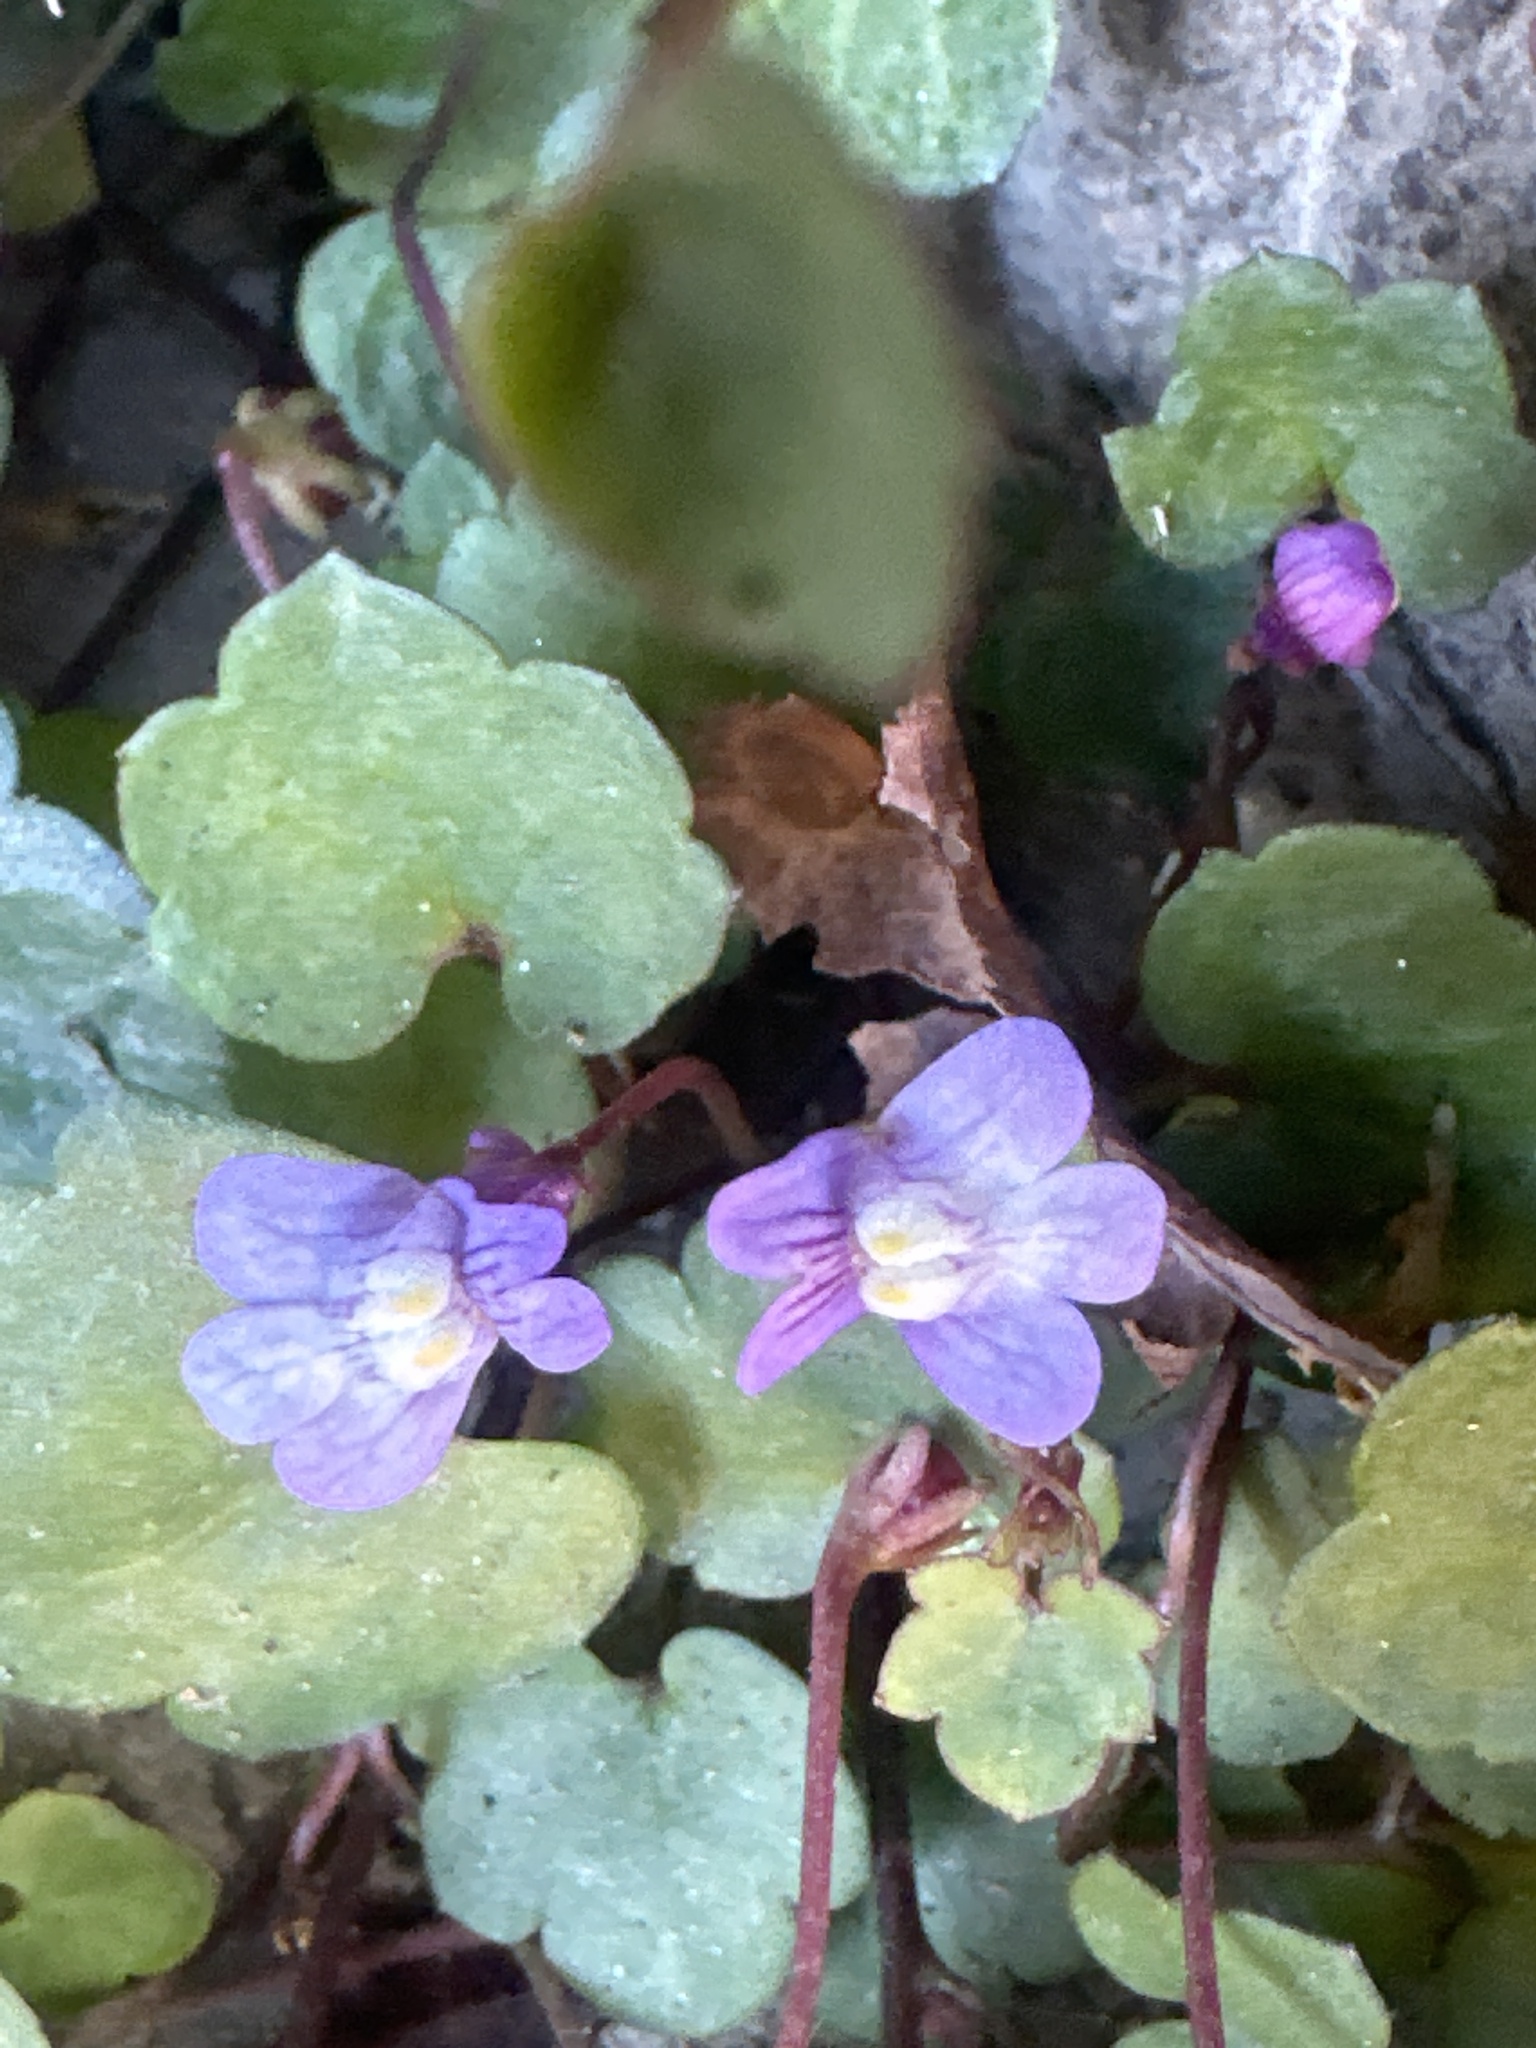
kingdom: Plantae
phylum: Tracheophyta
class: Magnoliopsida
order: Lamiales
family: Plantaginaceae
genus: Cymbalaria
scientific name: Cymbalaria muralis
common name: Ivy-leaved toadflax
